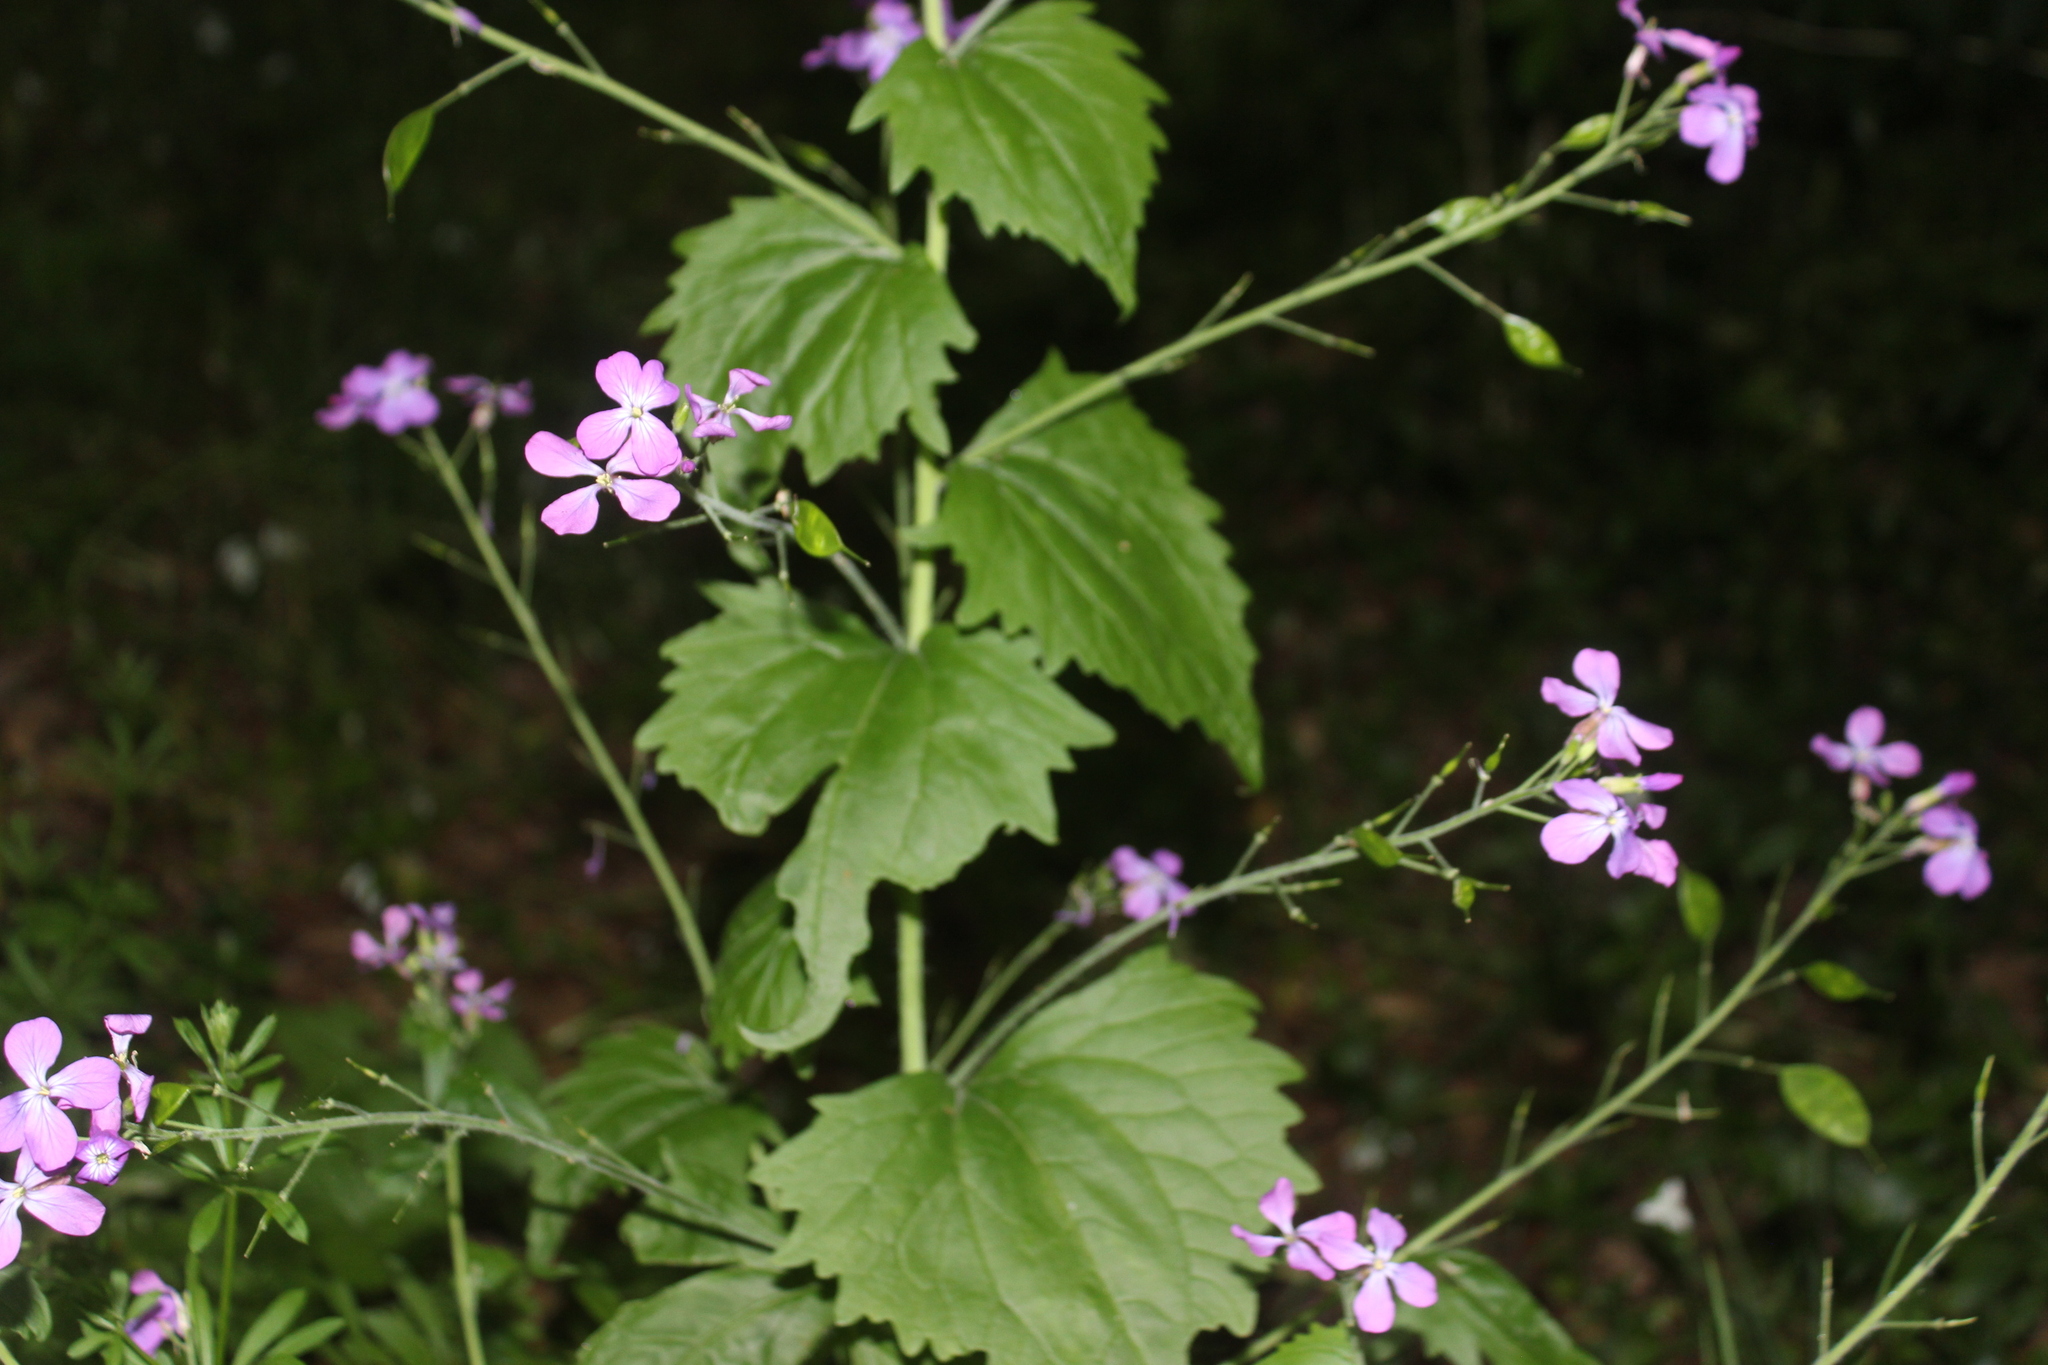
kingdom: Plantae
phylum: Tracheophyta
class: Magnoliopsida
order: Brassicales
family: Brassicaceae
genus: Lunaria
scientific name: Lunaria annua
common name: Honesty
